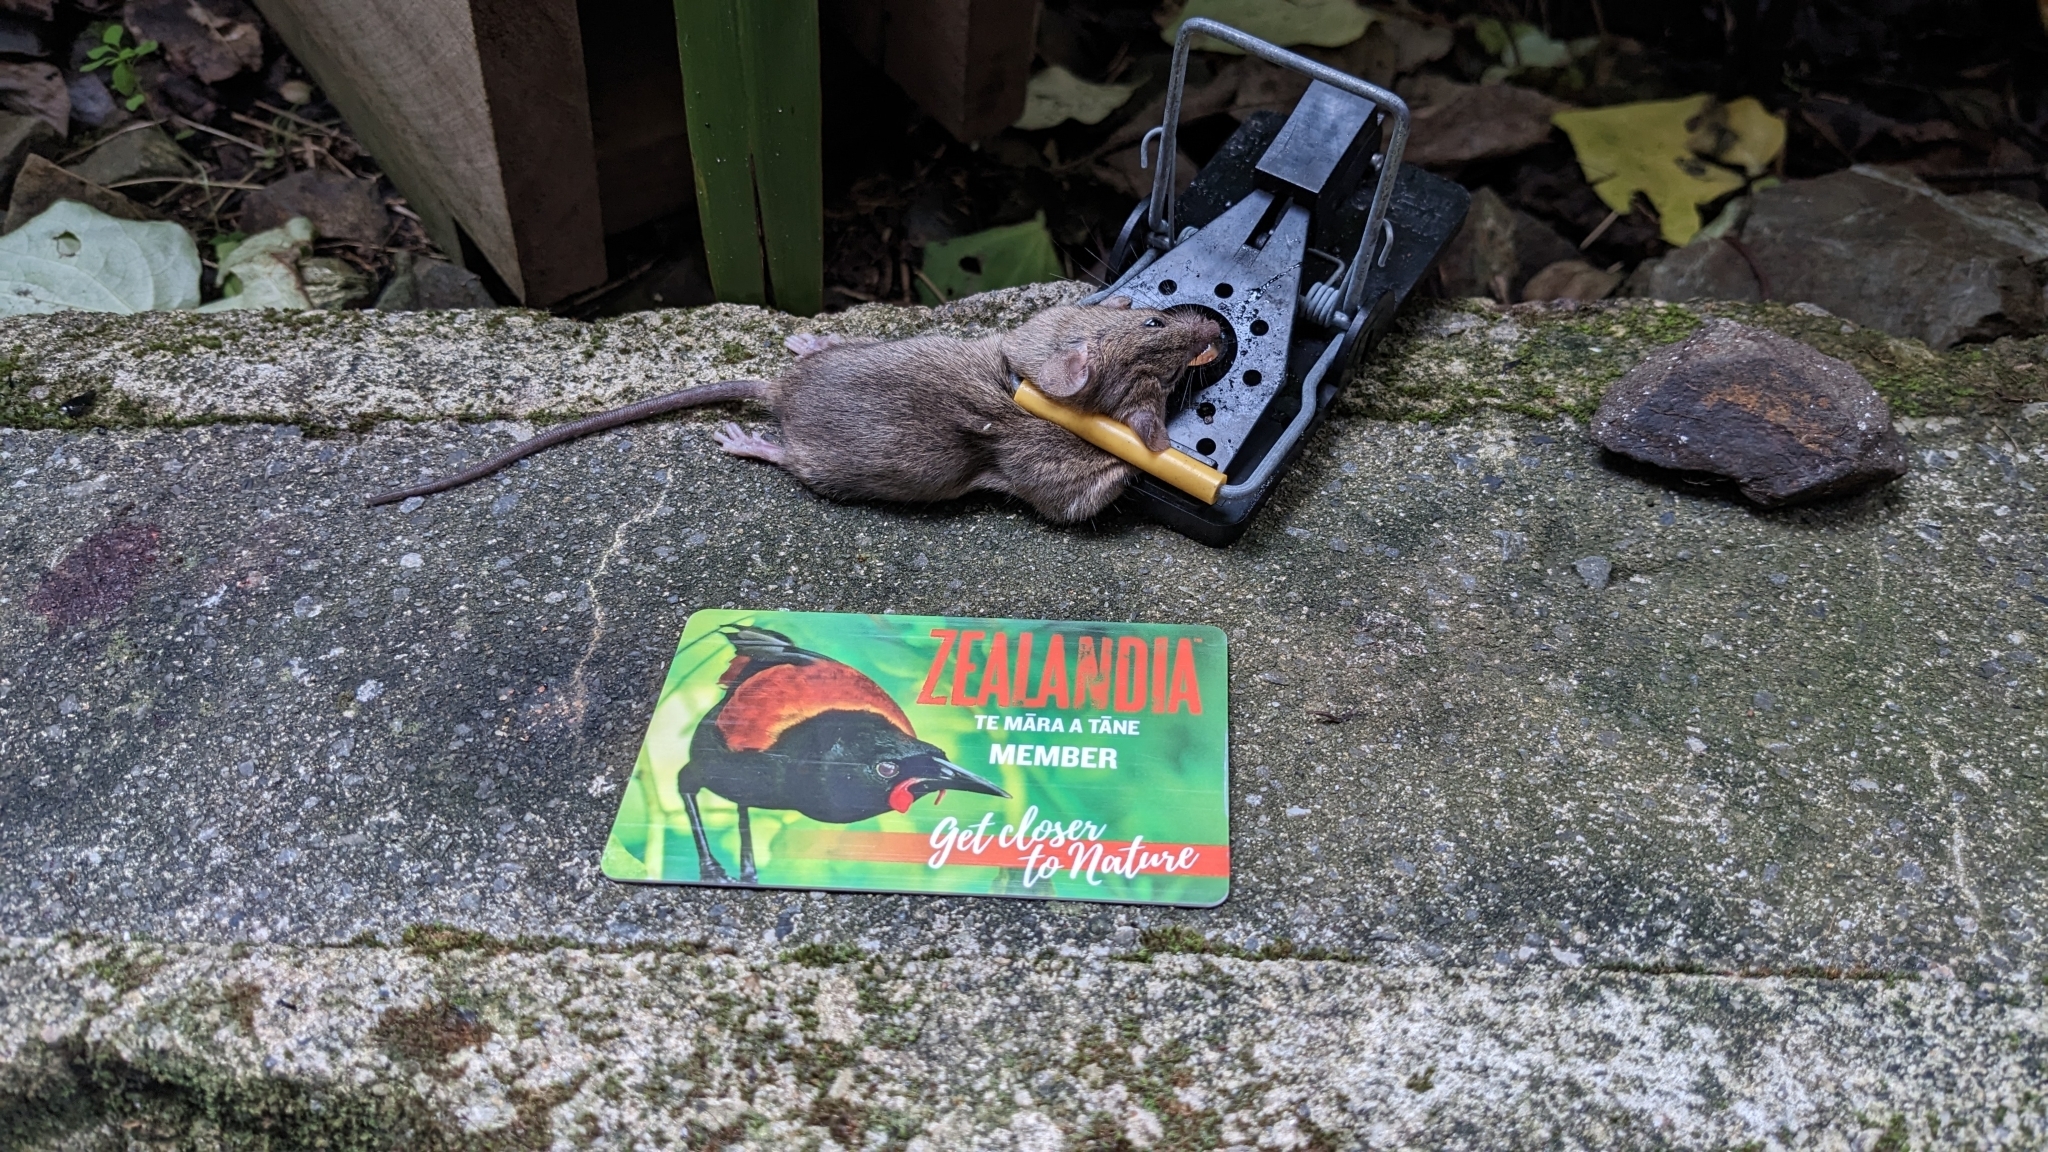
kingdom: Animalia
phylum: Chordata
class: Mammalia
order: Rodentia
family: Muridae
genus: Mus
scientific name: Mus musculus
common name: House mouse
